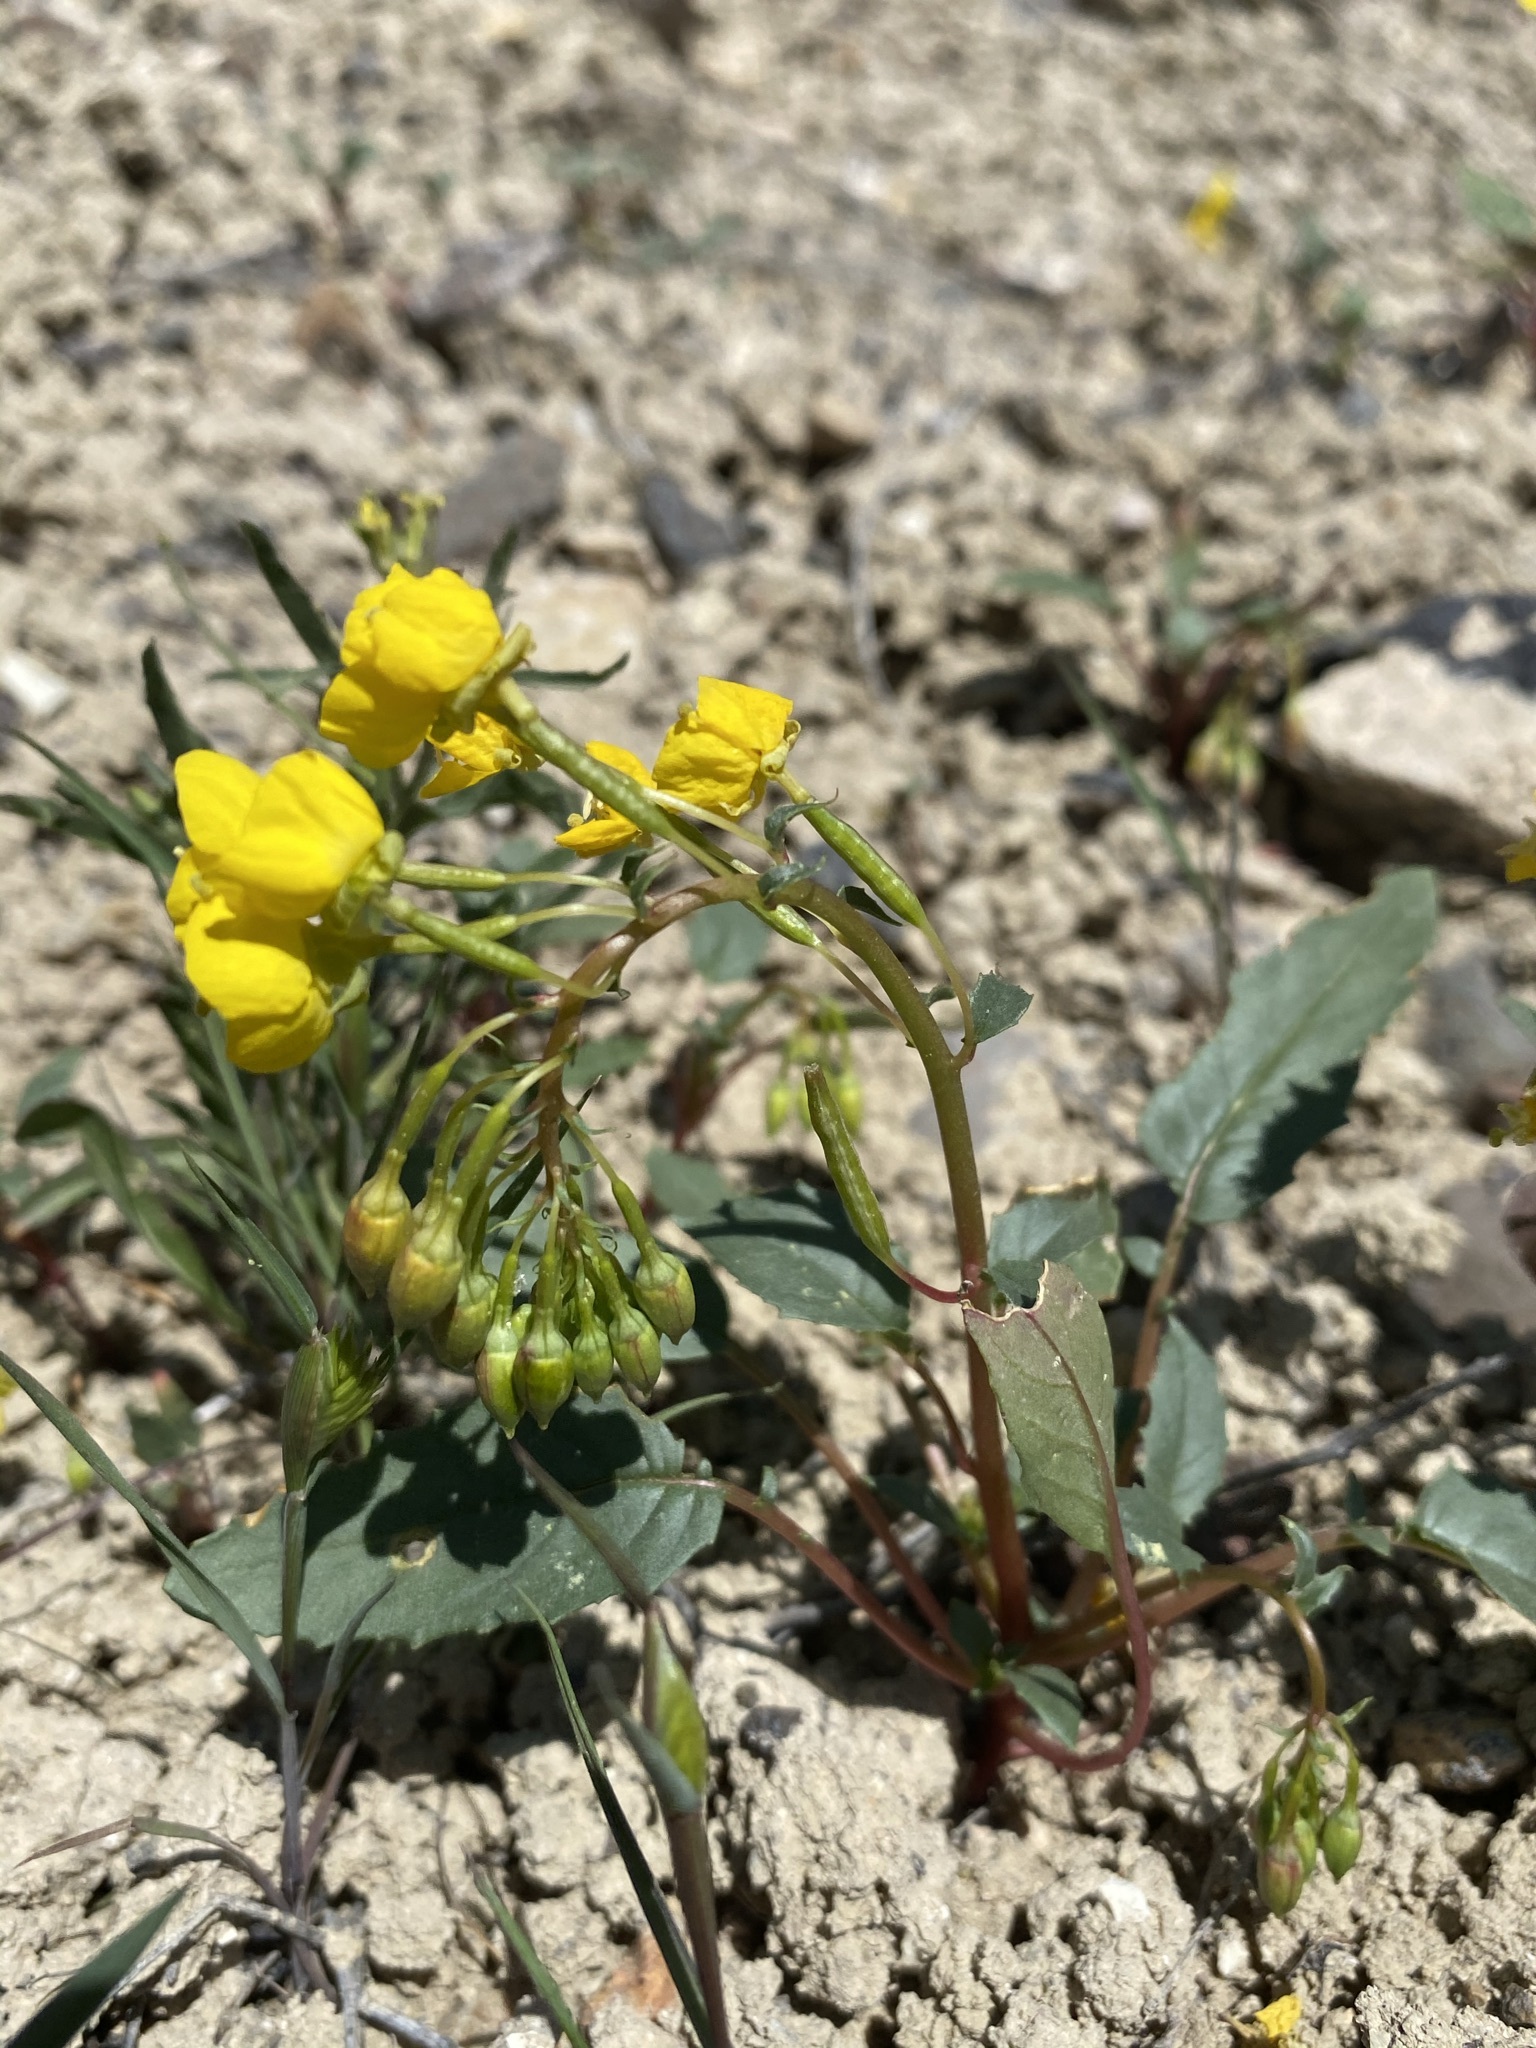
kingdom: Plantae
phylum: Tracheophyta
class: Magnoliopsida
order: Myrtales
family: Onagraceae
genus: Chylismia
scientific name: Chylismia claviformis
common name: Browneyes
